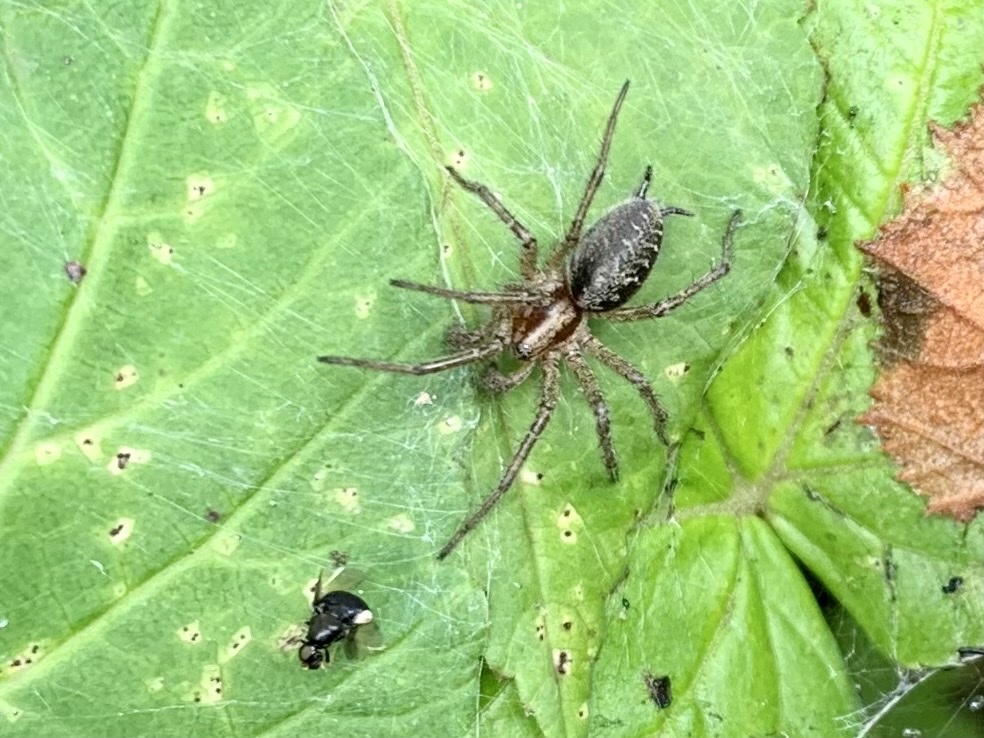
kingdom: Animalia
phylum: Arthropoda
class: Arachnida
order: Araneae
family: Agelenidae
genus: Agelena
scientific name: Agelena labyrinthica
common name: Labyrinth spider
